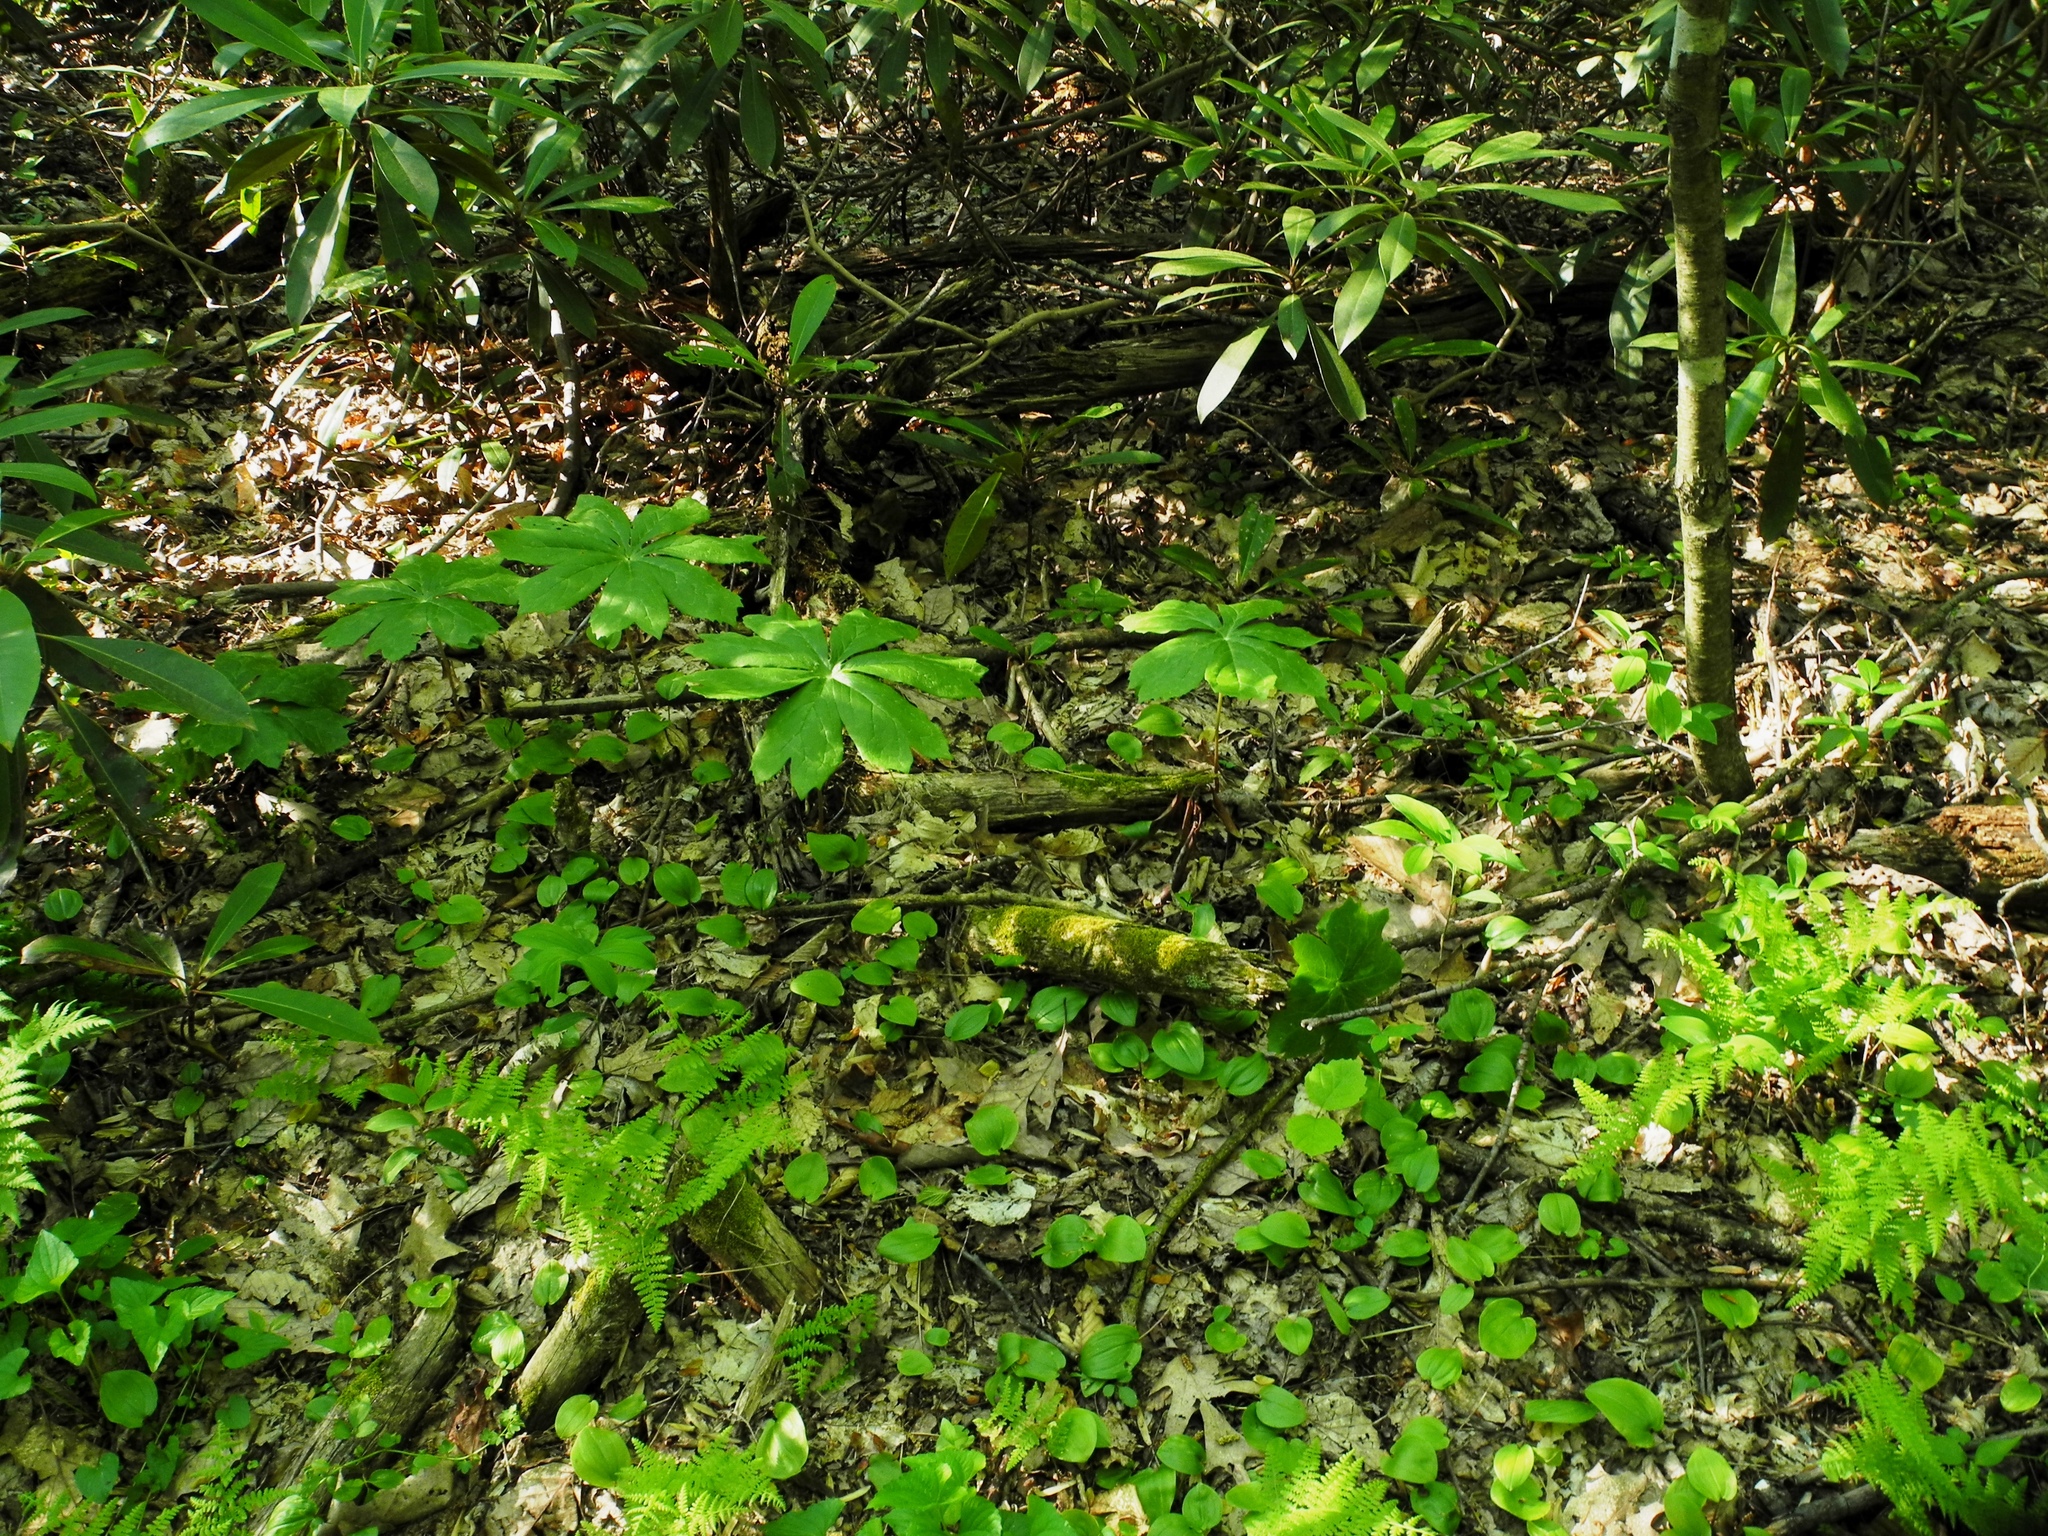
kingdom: Plantae
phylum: Tracheophyta
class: Magnoliopsida
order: Ranunculales
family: Berberidaceae
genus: Podophyllum
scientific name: Podophyllum peltatum
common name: Wild mandrake
